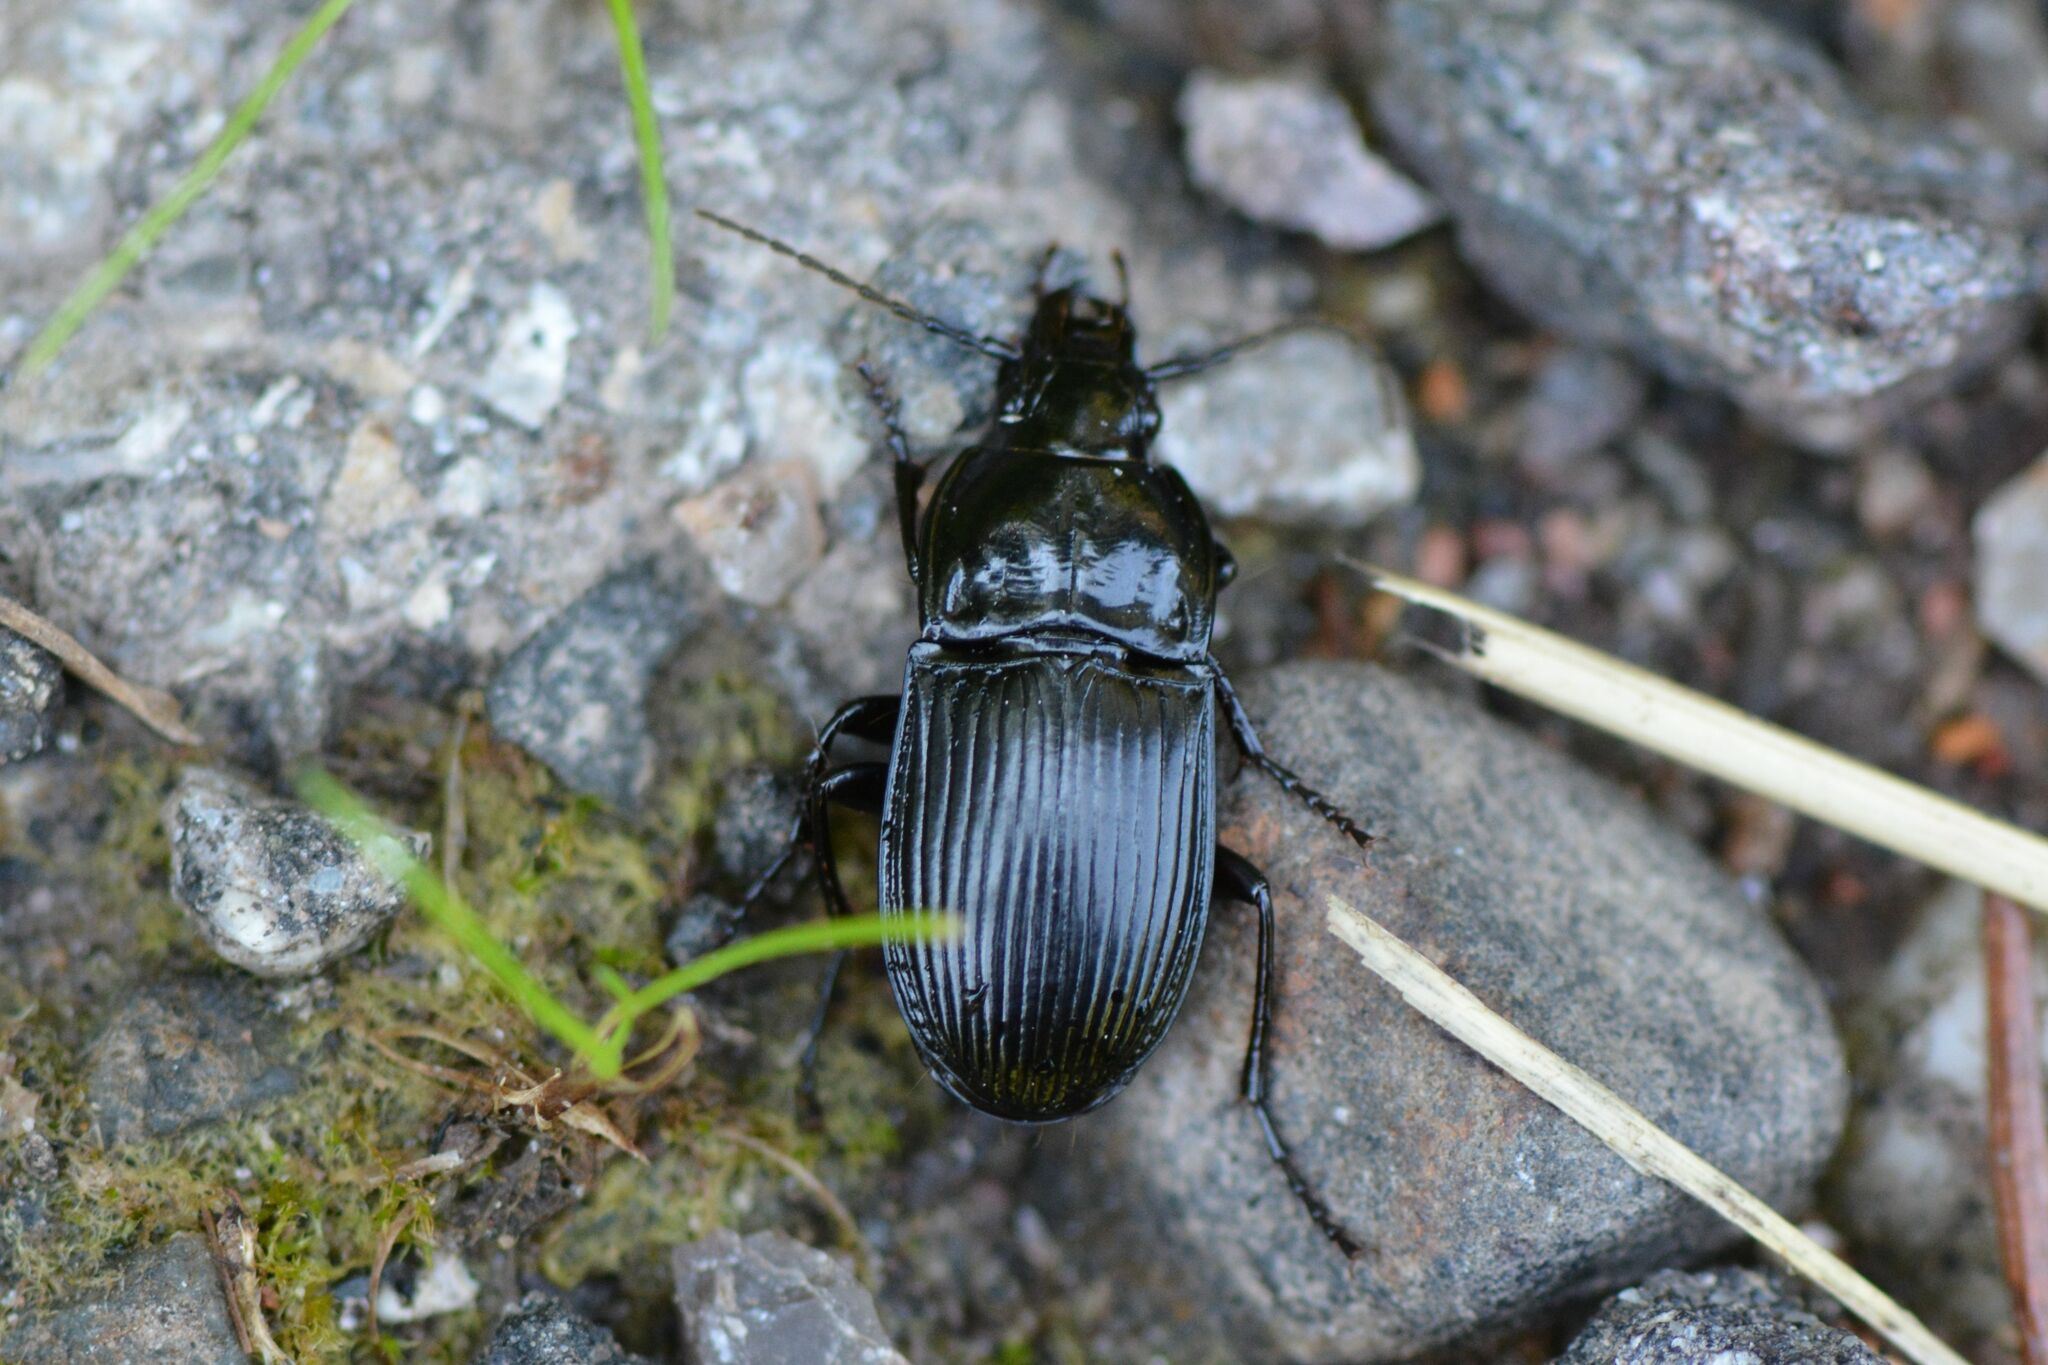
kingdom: Animalia
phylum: Arthropoda
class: Insecta
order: Coleoptera
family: Carabidae
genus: Abax
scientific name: Abax ovalis
